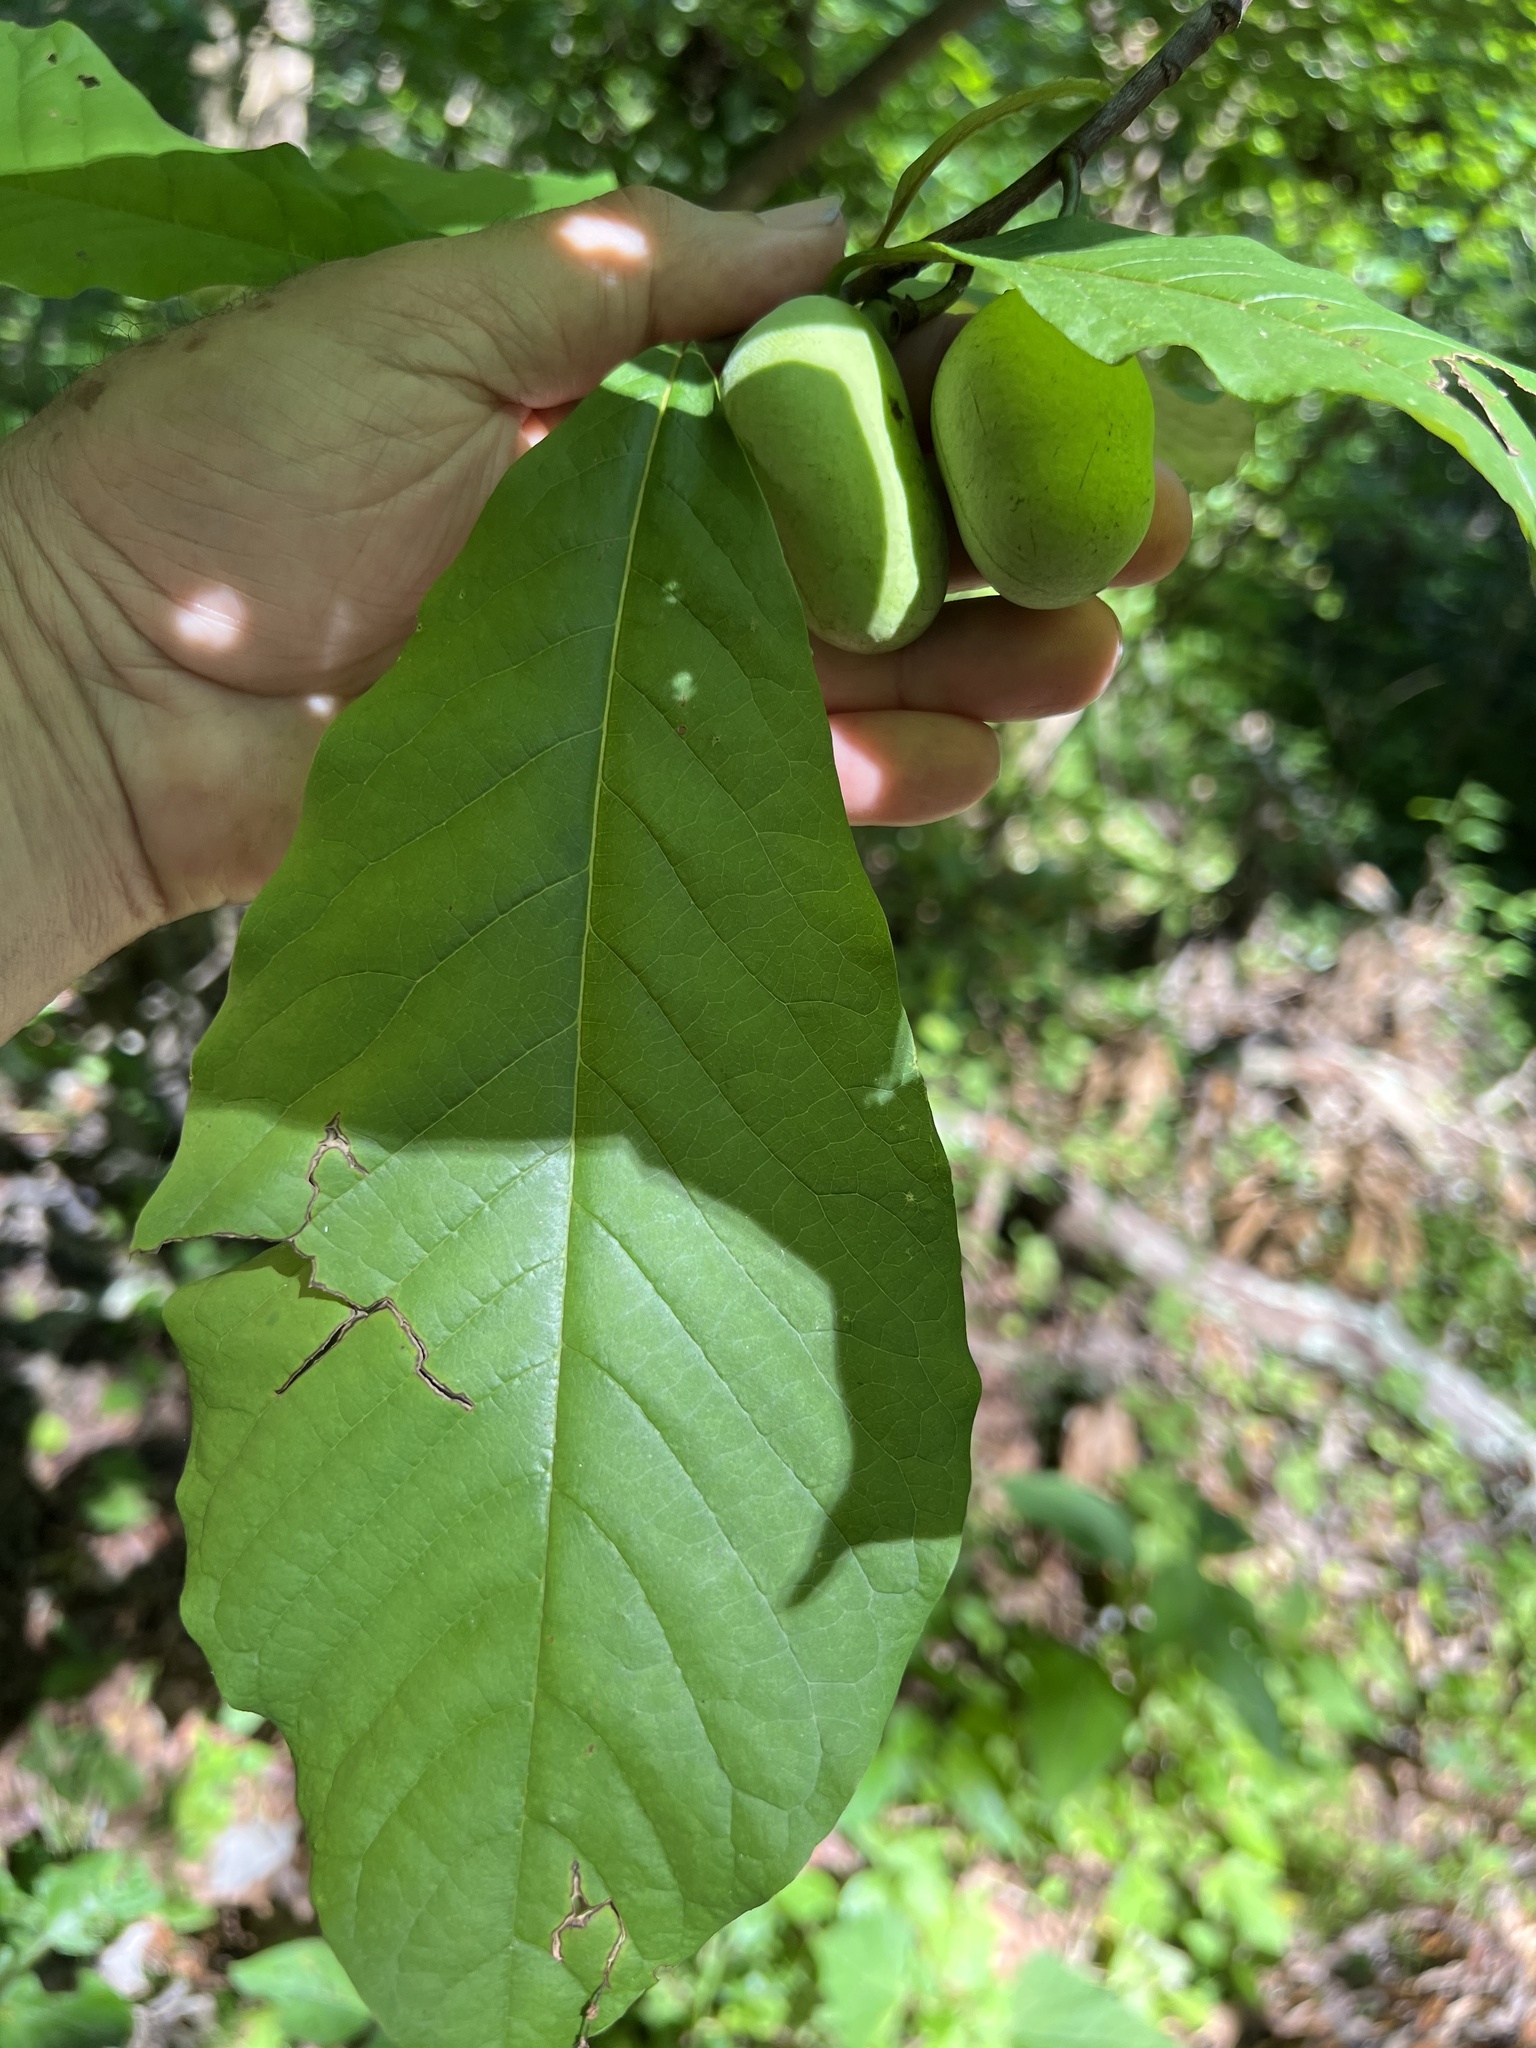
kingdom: Plantae
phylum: Tracheophyta
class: Magnoliopsida
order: Magnoliales
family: Annonaceae
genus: Asimina
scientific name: Asimina triloba
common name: Dog-banana
